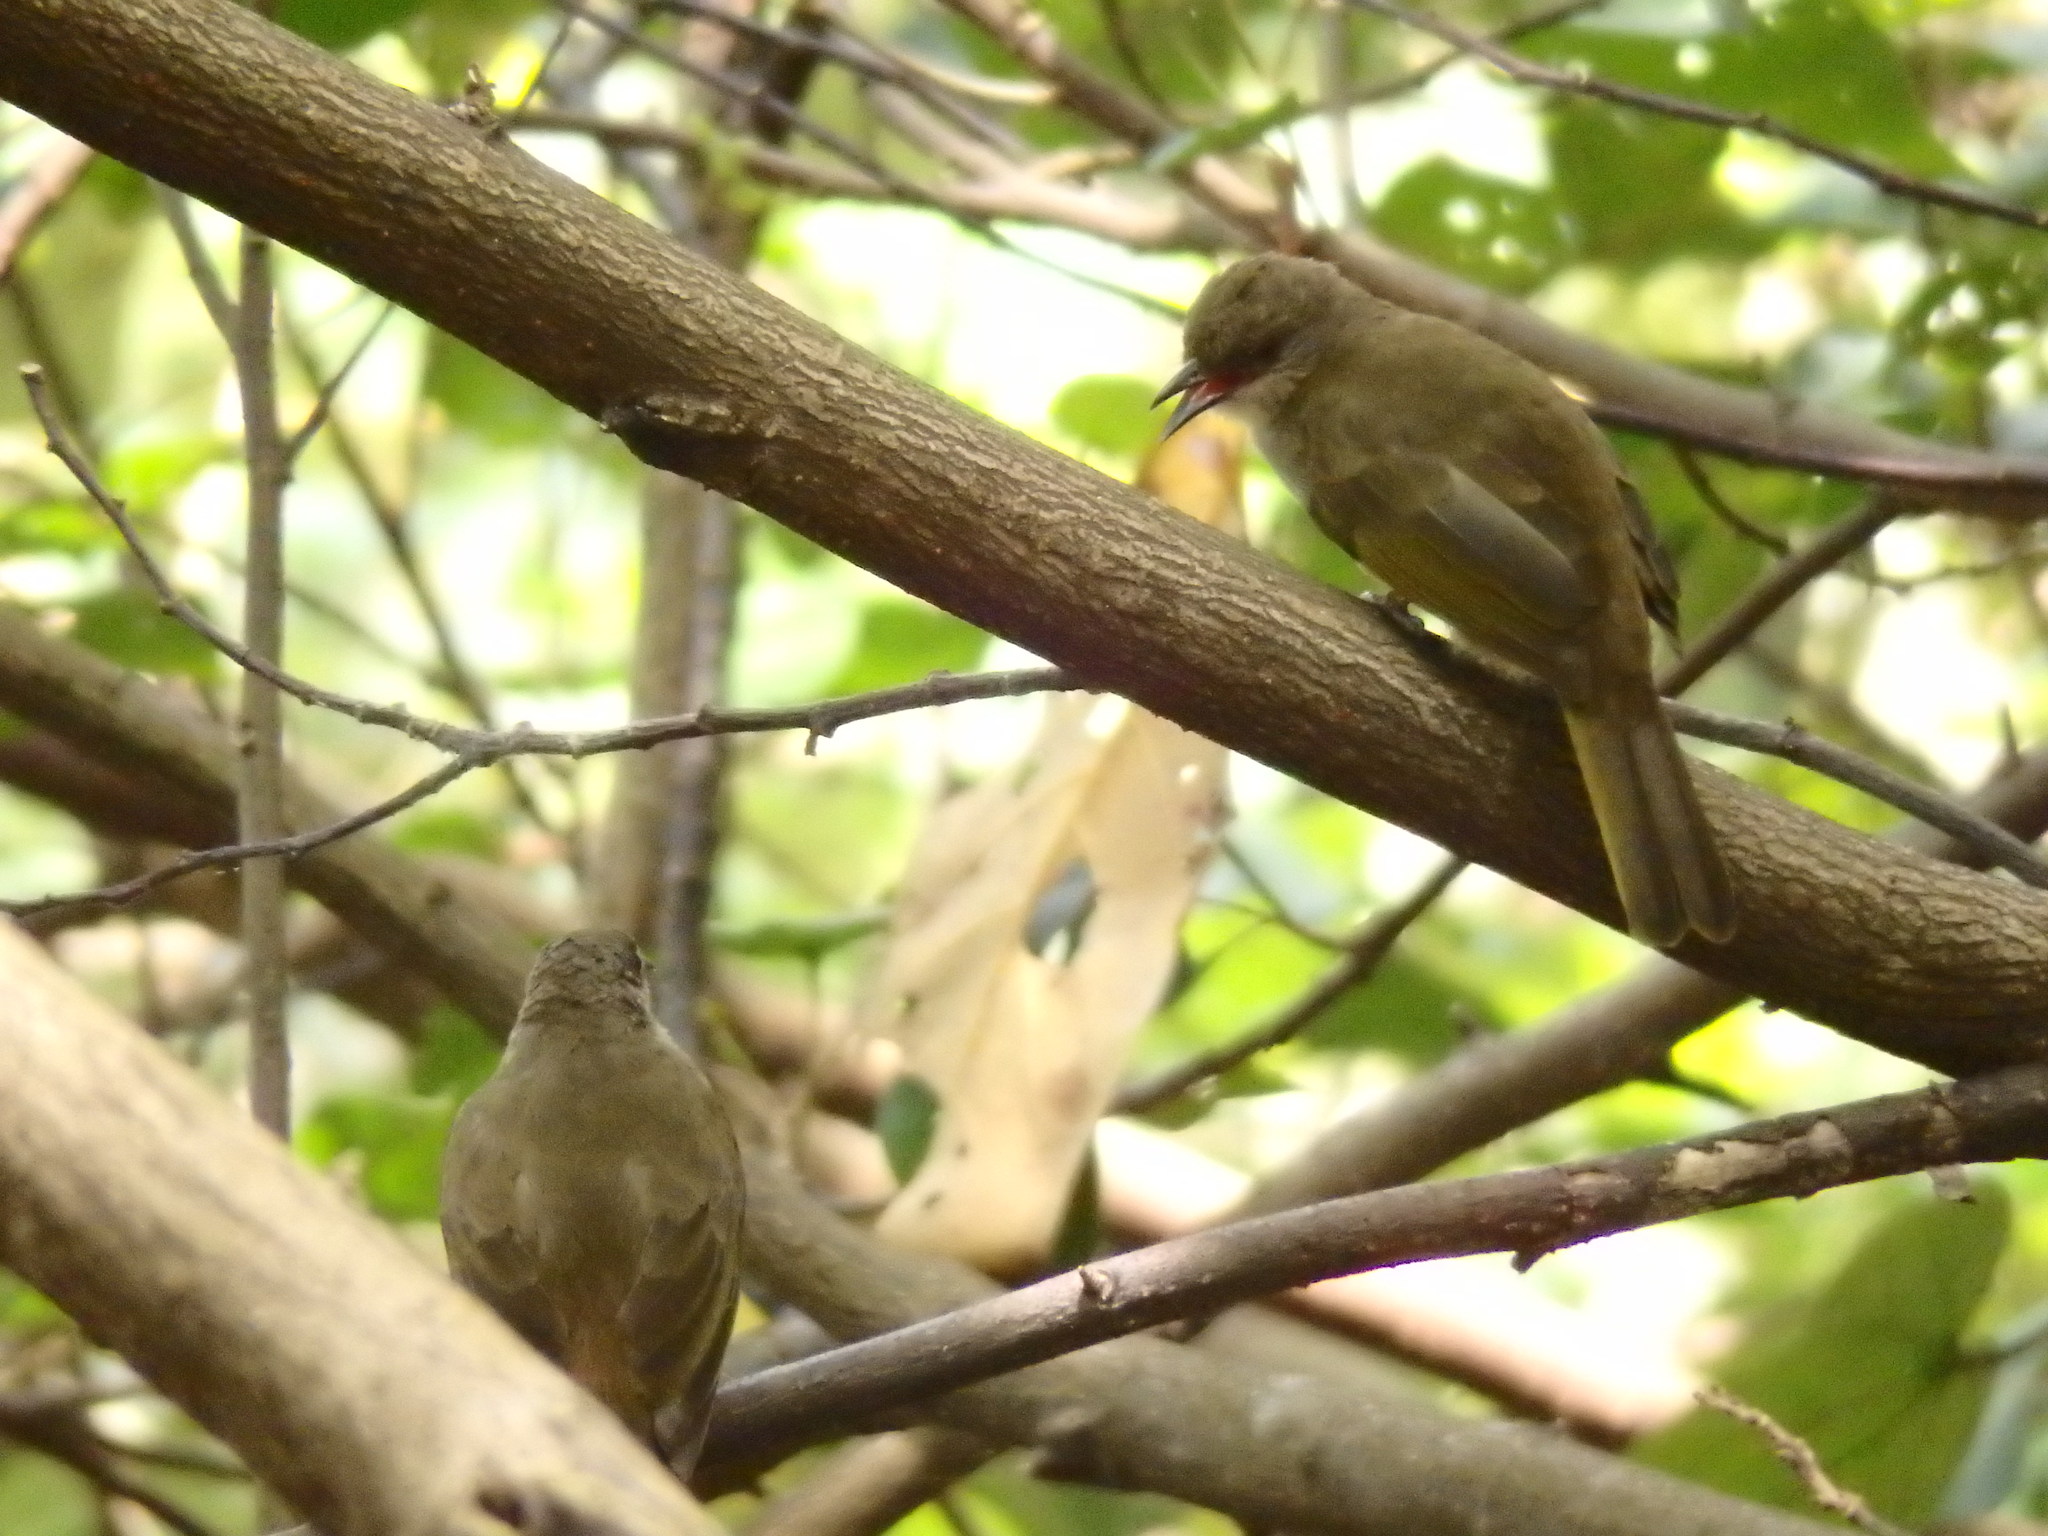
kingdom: Animalia
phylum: Chordata
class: Aves
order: Passeriformes
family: Pycnonotidae
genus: Pycnonotus
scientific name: Pycnonotus plumosus
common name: Olive-winged bulbul
